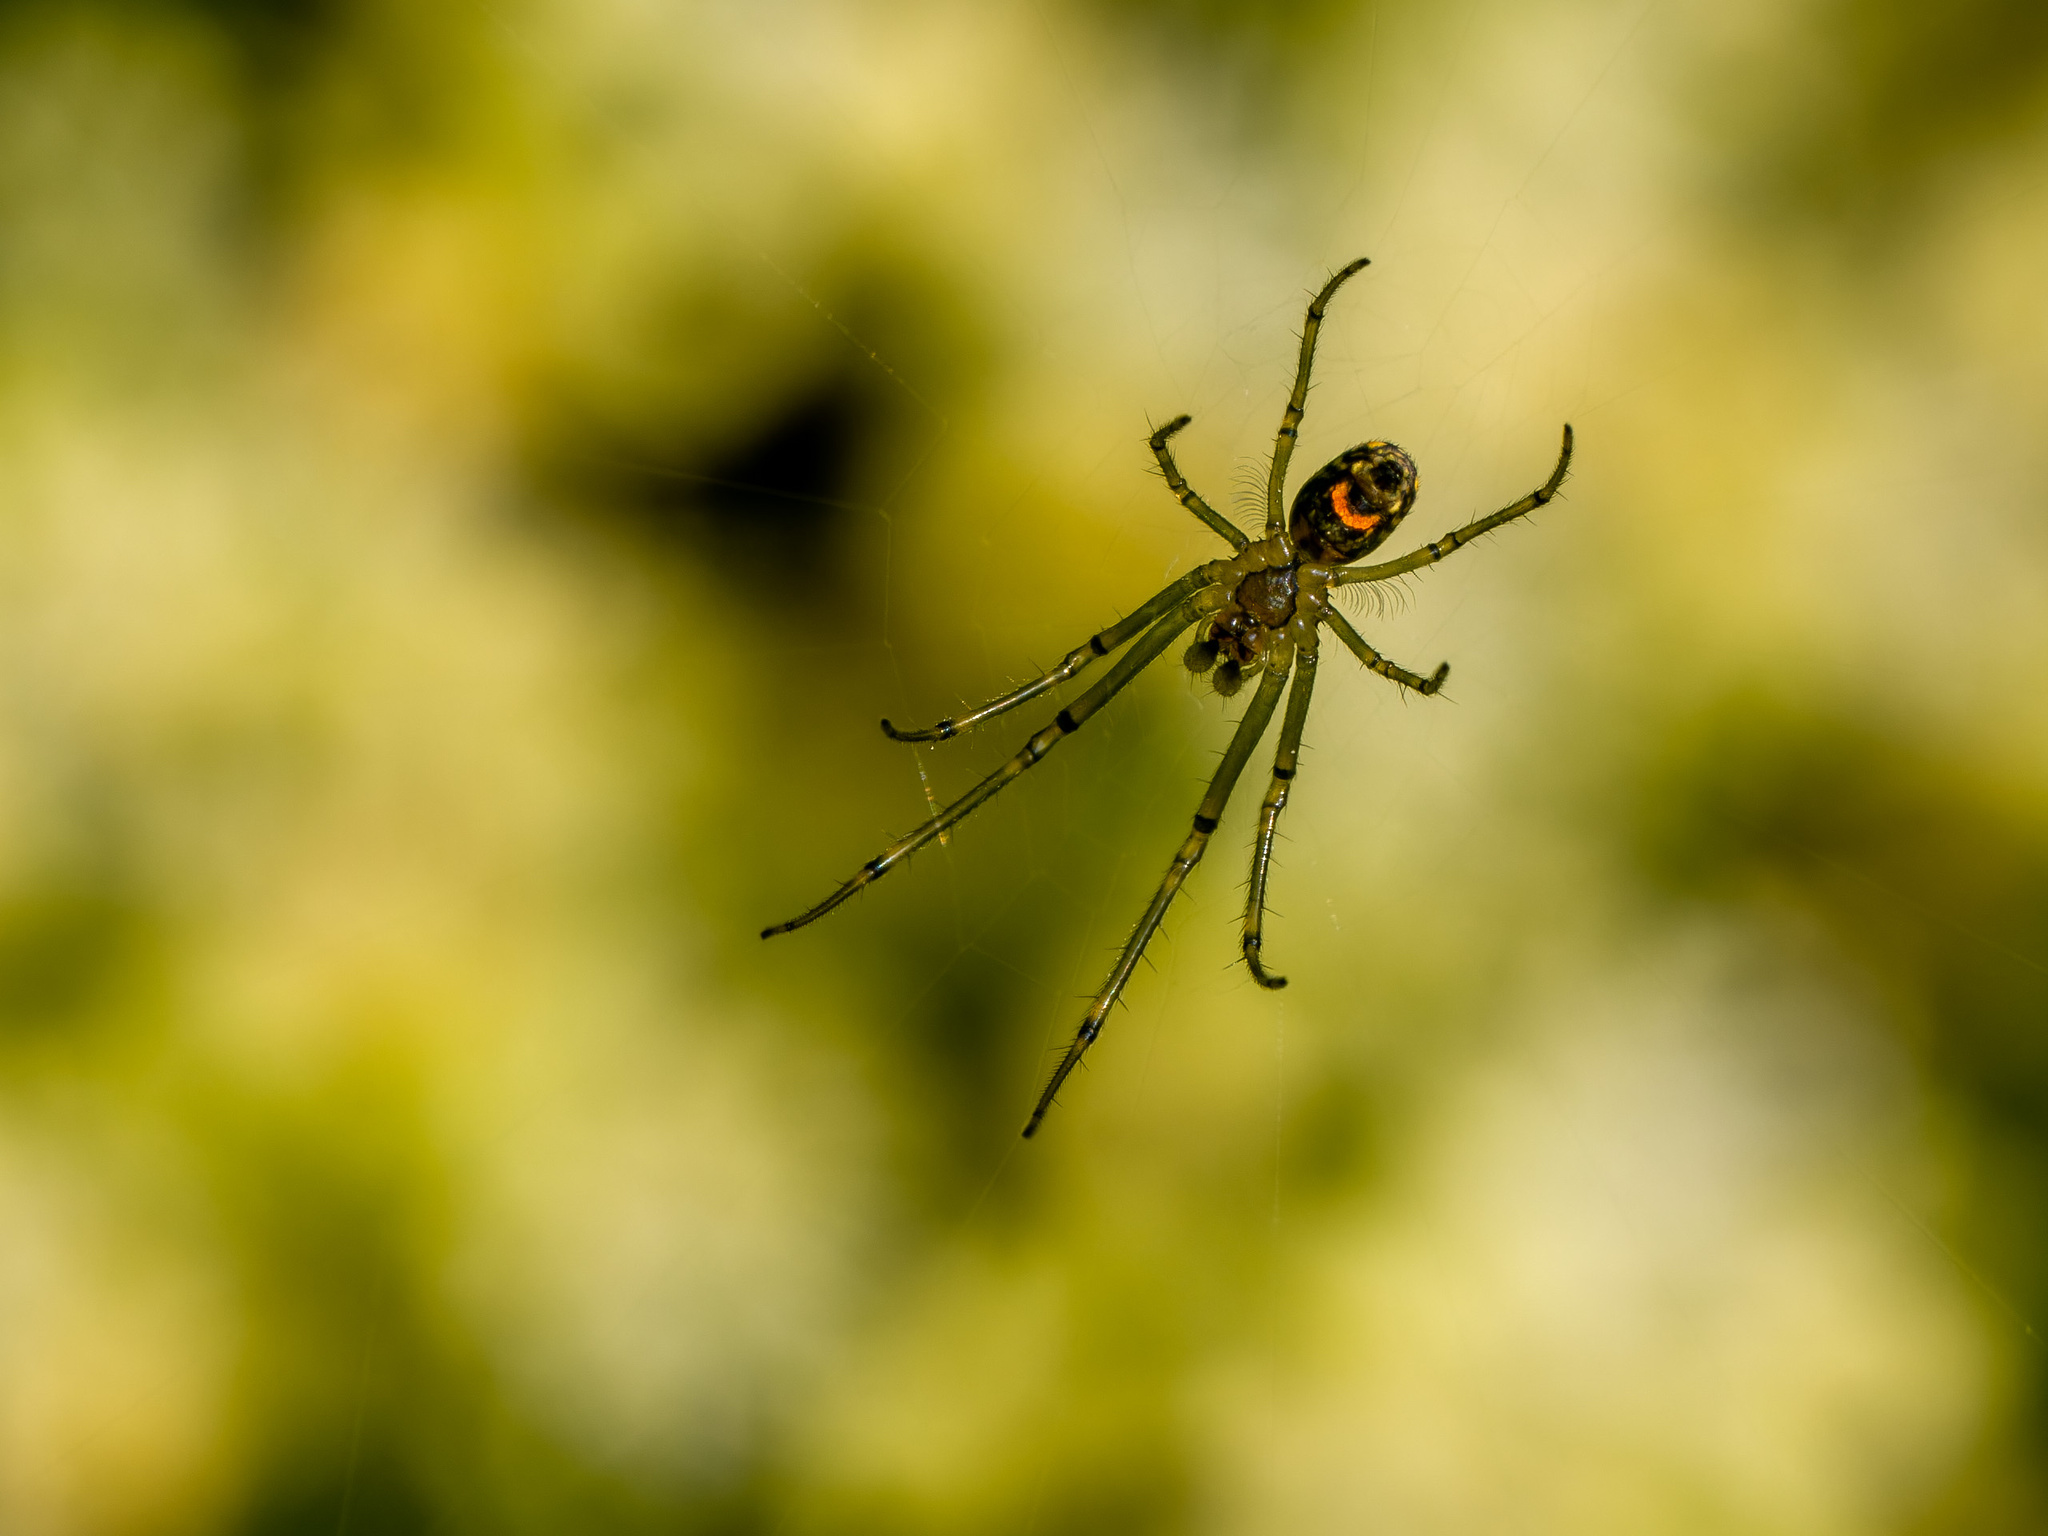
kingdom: Animalia
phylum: Arthropoda
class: Arachnida
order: Araneae
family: Tetragnathidae
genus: Leucauge
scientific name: Leucauge venusta
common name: Longjawed orb weavers
